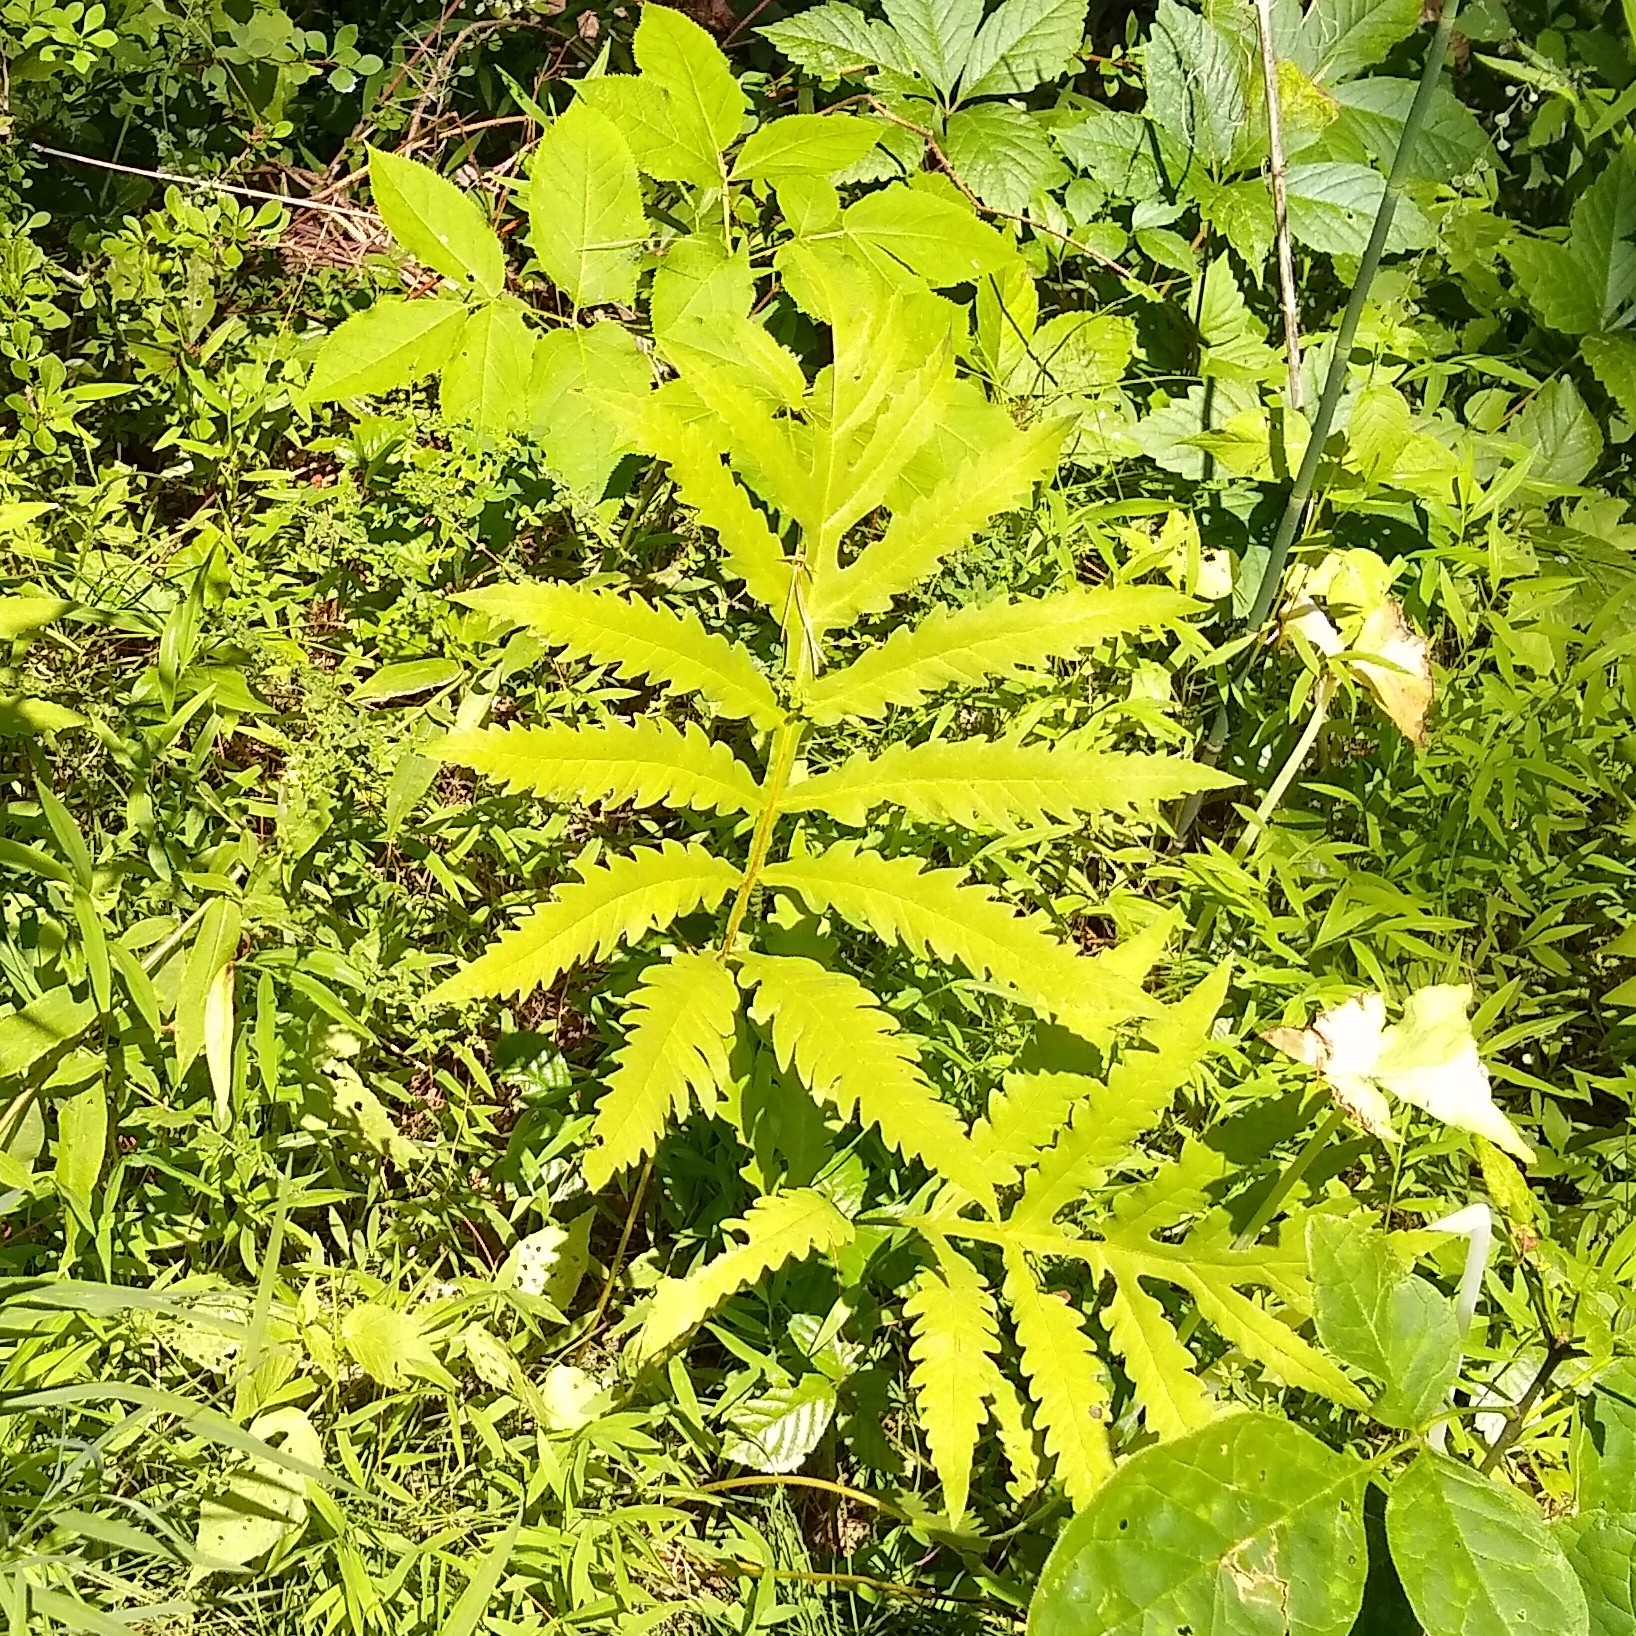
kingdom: Plantae
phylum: Tracheophyta
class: Polypodiopsida
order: Polypodiales
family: Onocleaceae
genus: Onoclea
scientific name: Onoclea sensibilis
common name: Sensitive fern
